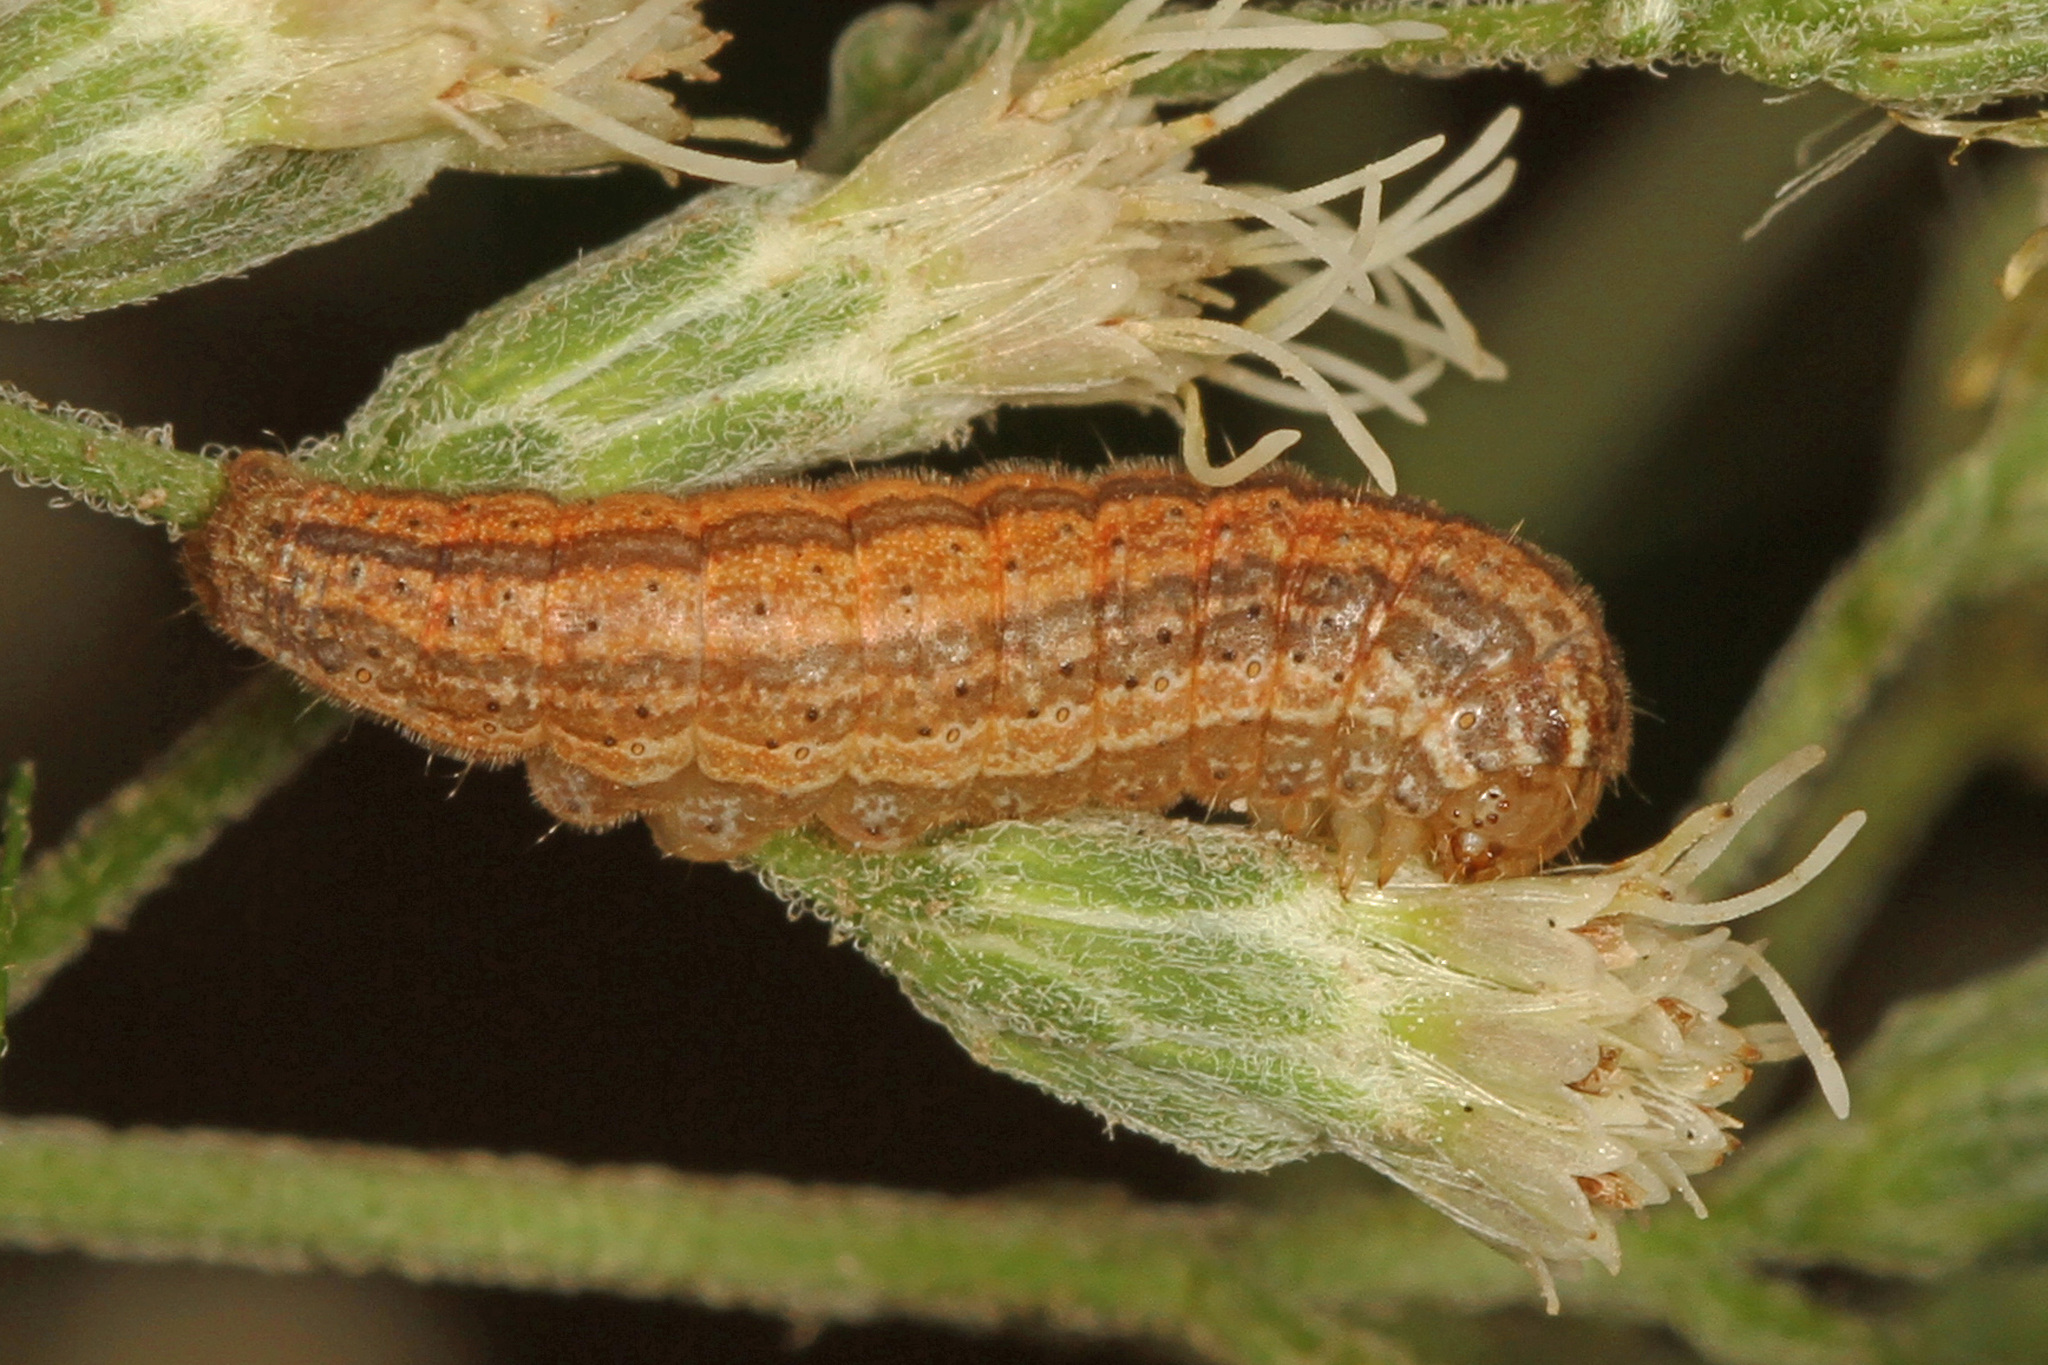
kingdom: Animalia
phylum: Arthropoda
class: Insecta
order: Lepidoptera
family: Noctuidae
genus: Schinia
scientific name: Schinia trifascia
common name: Three-lined flower moth
